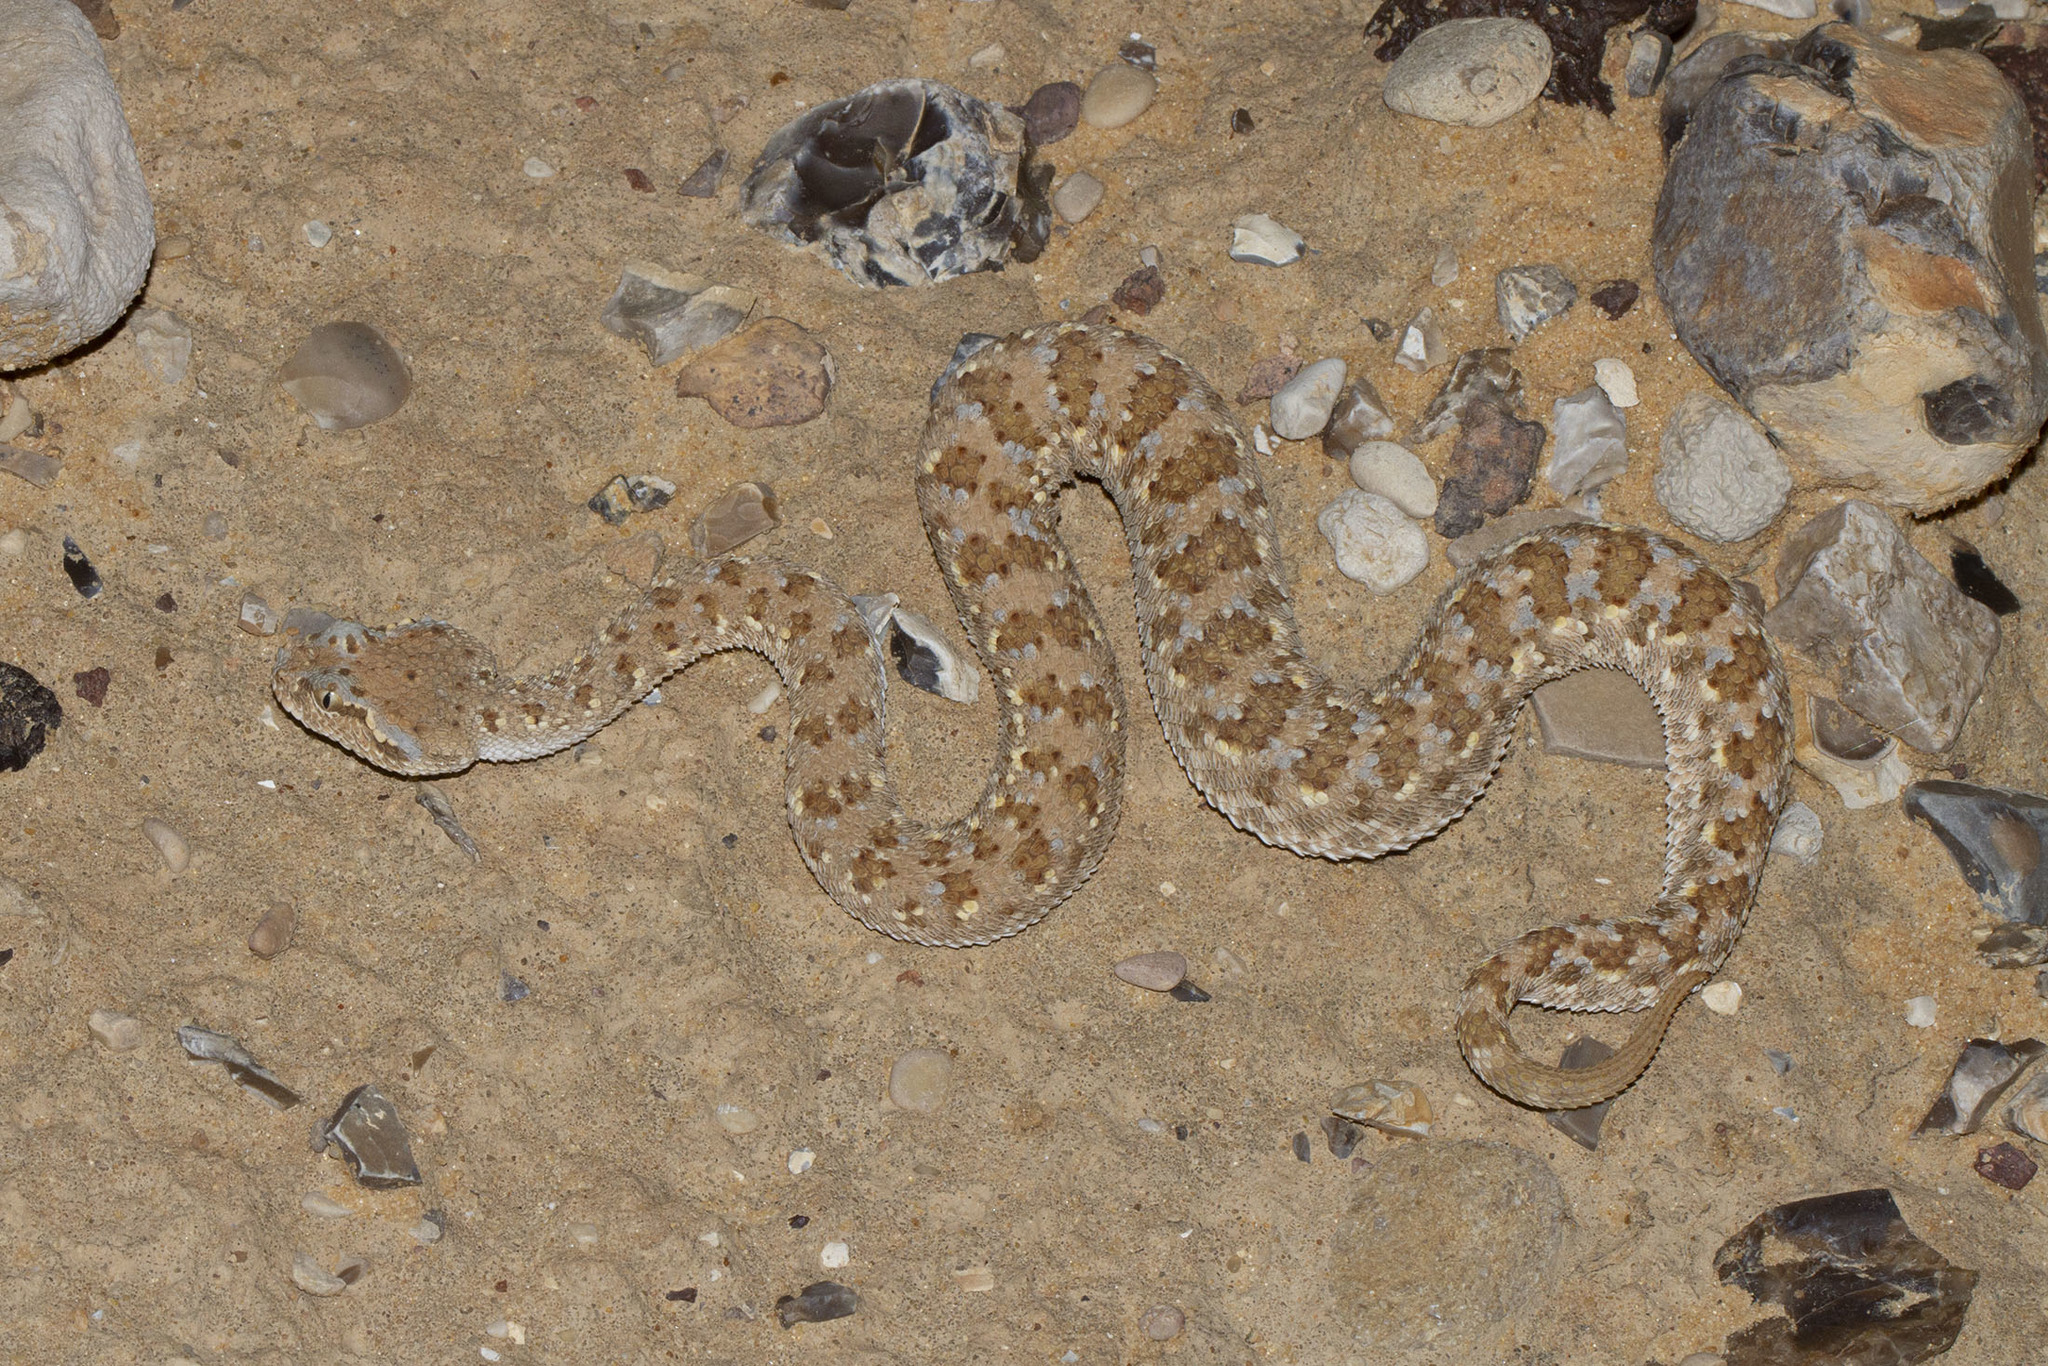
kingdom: Animalia
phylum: Chordata
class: Squamata
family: Viperidae
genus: Cerastes
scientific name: Cerastes gasperettii
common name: Arabian horned viper
